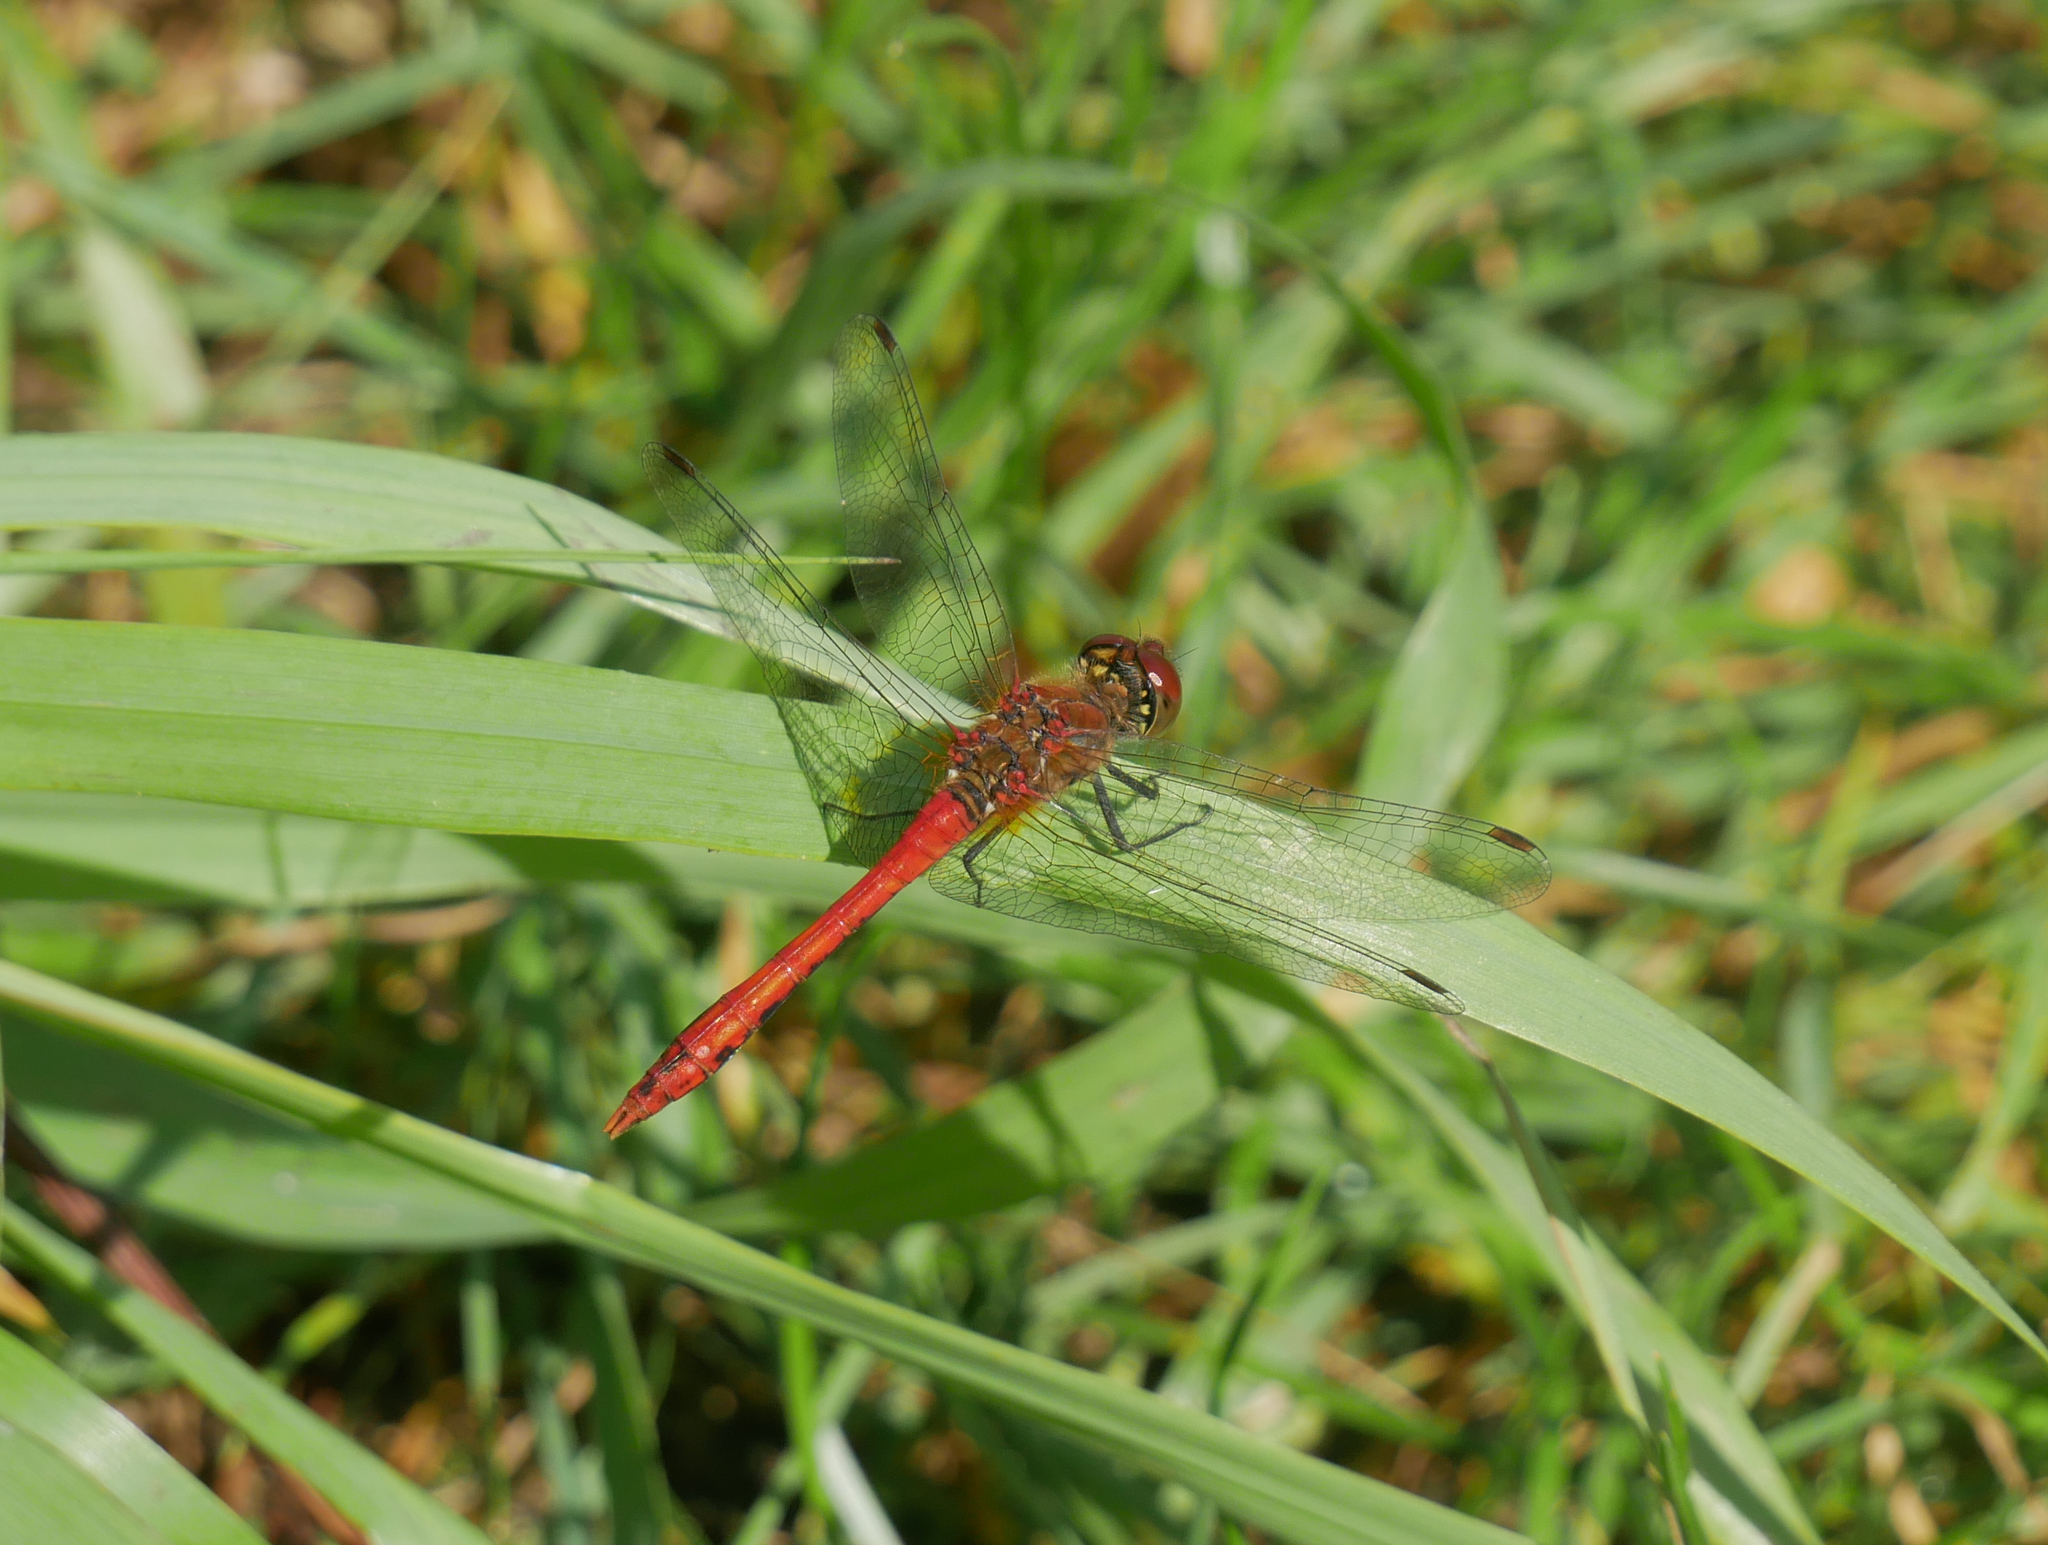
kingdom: Animalia
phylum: Arthropoda
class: Insecta
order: Odonata
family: Libellulidae
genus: Sympetrum
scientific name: Sympetrum sanguineum
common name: Ruddy darter
